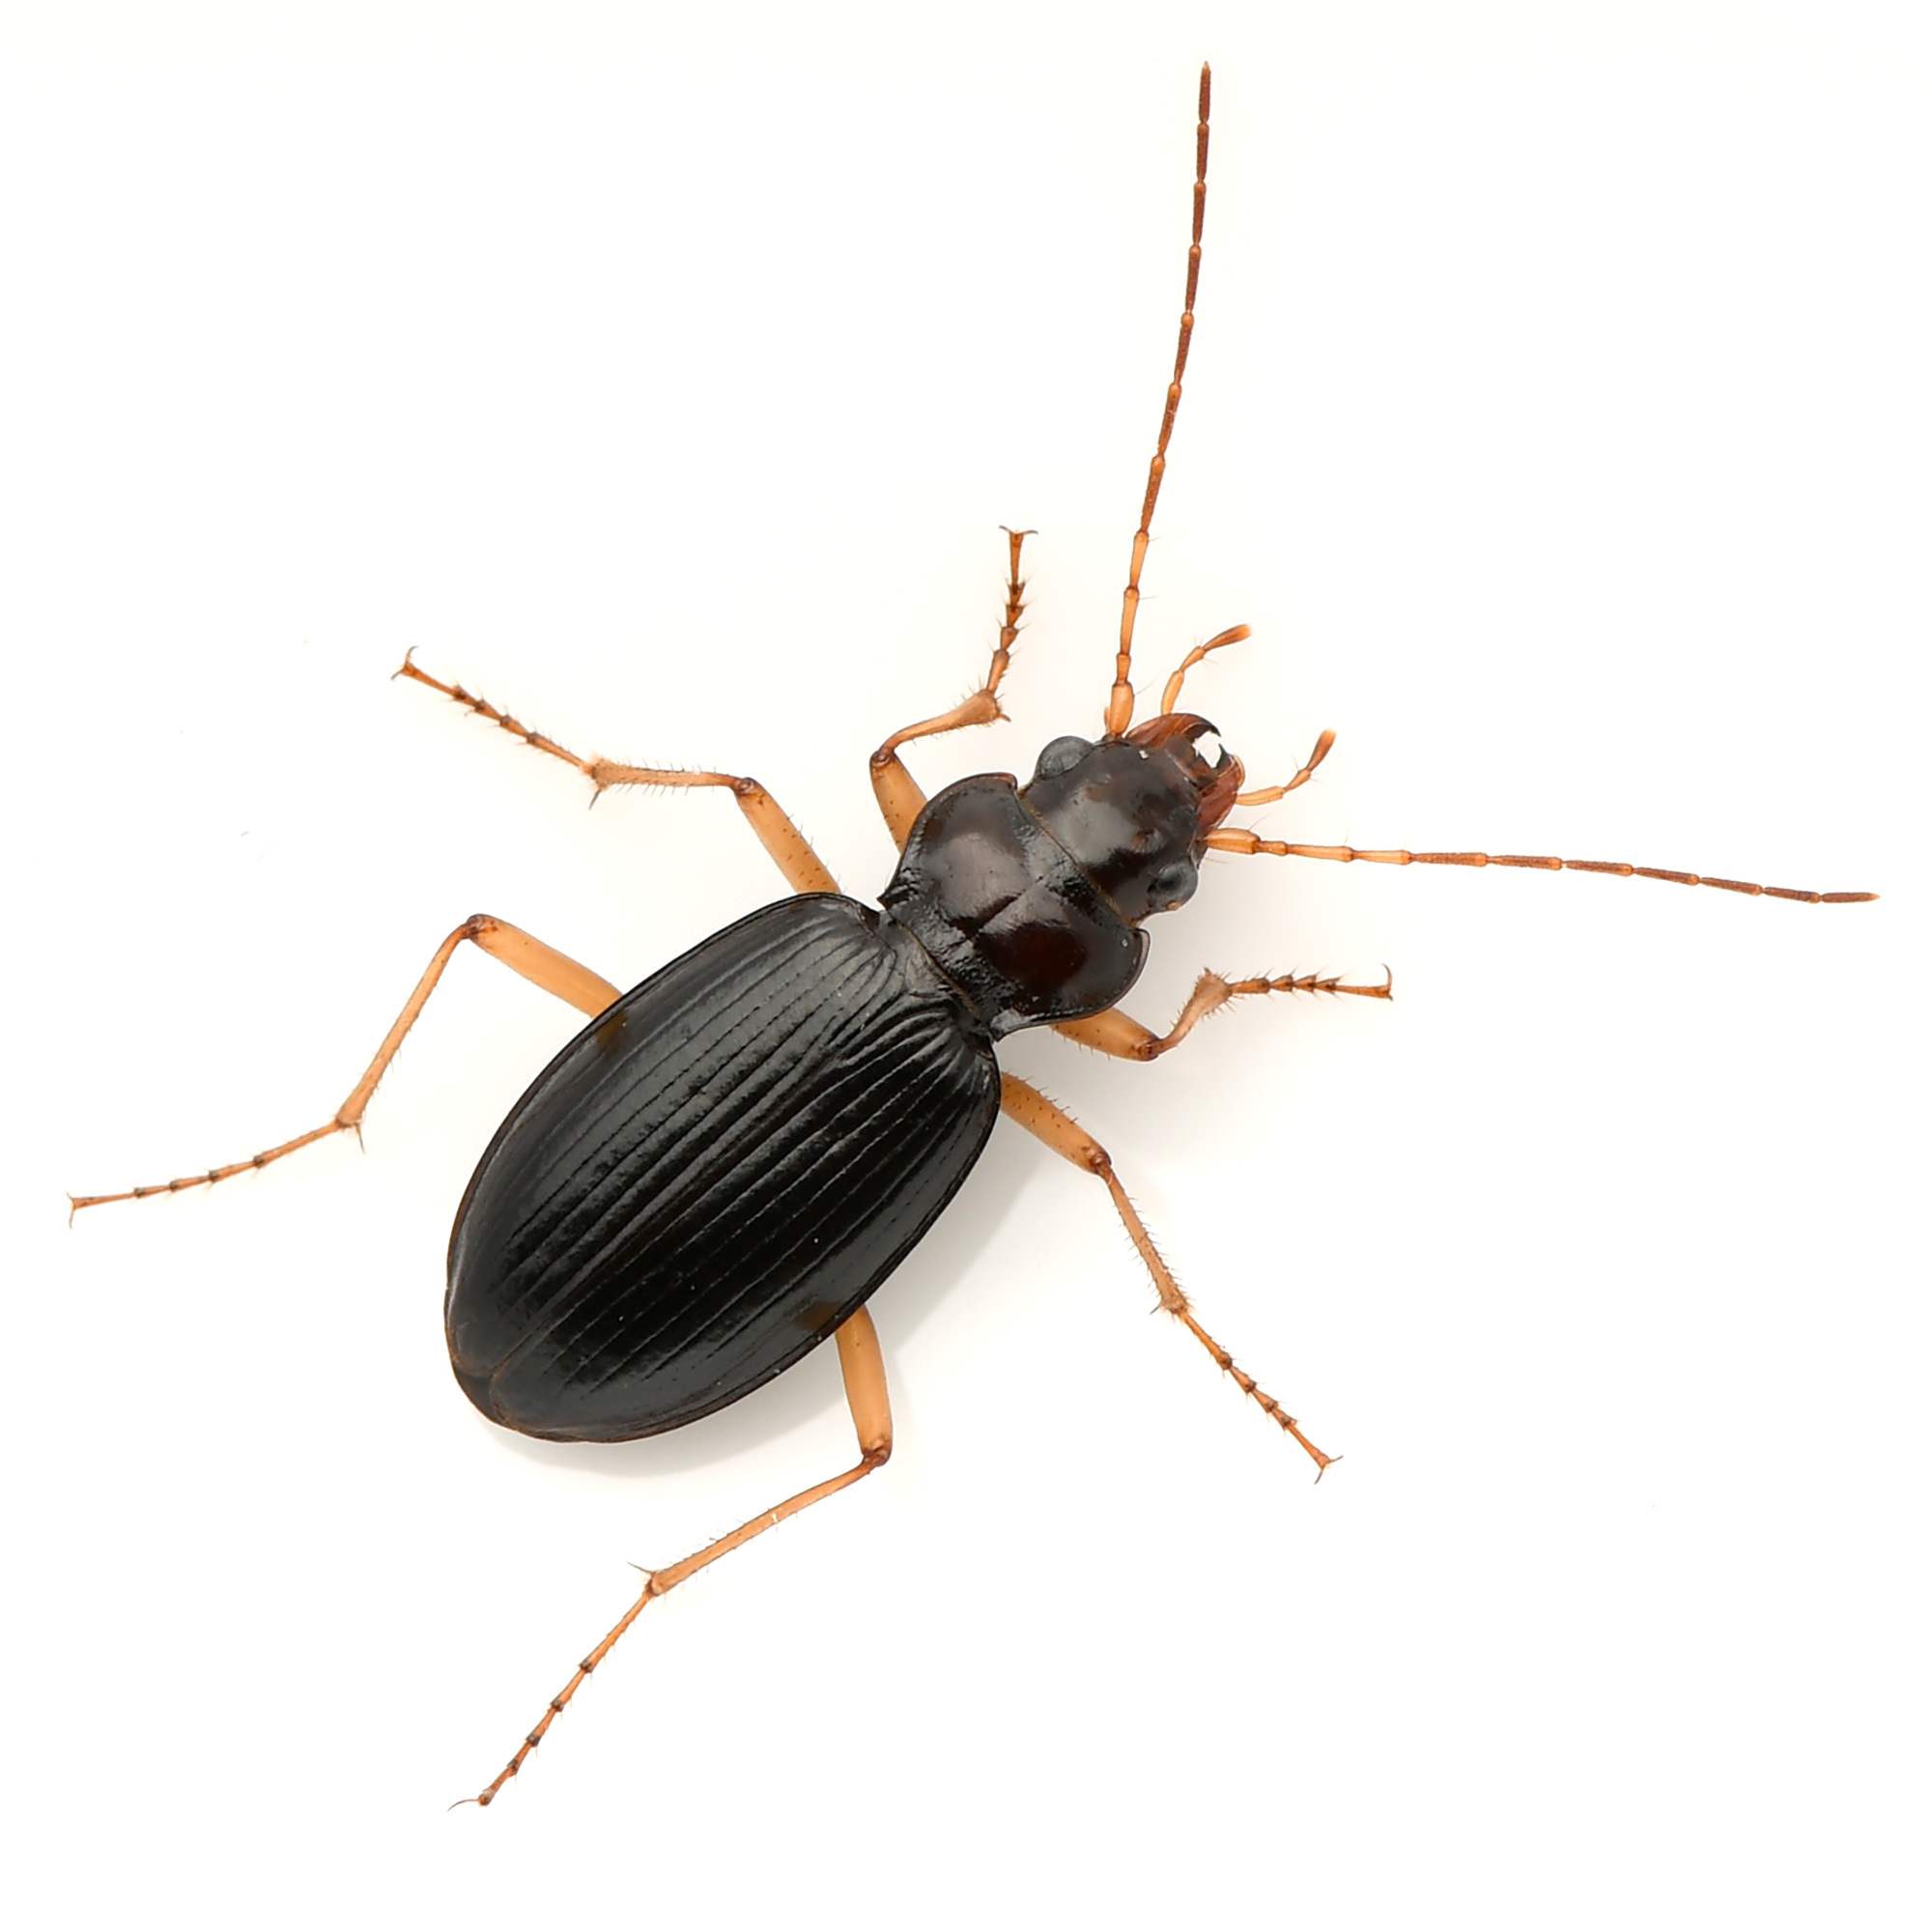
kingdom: Animalia
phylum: Arthropoda
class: Insecta
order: Coleoptera
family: Carabidae
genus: Nebria
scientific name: Nebria eschscholtzii
